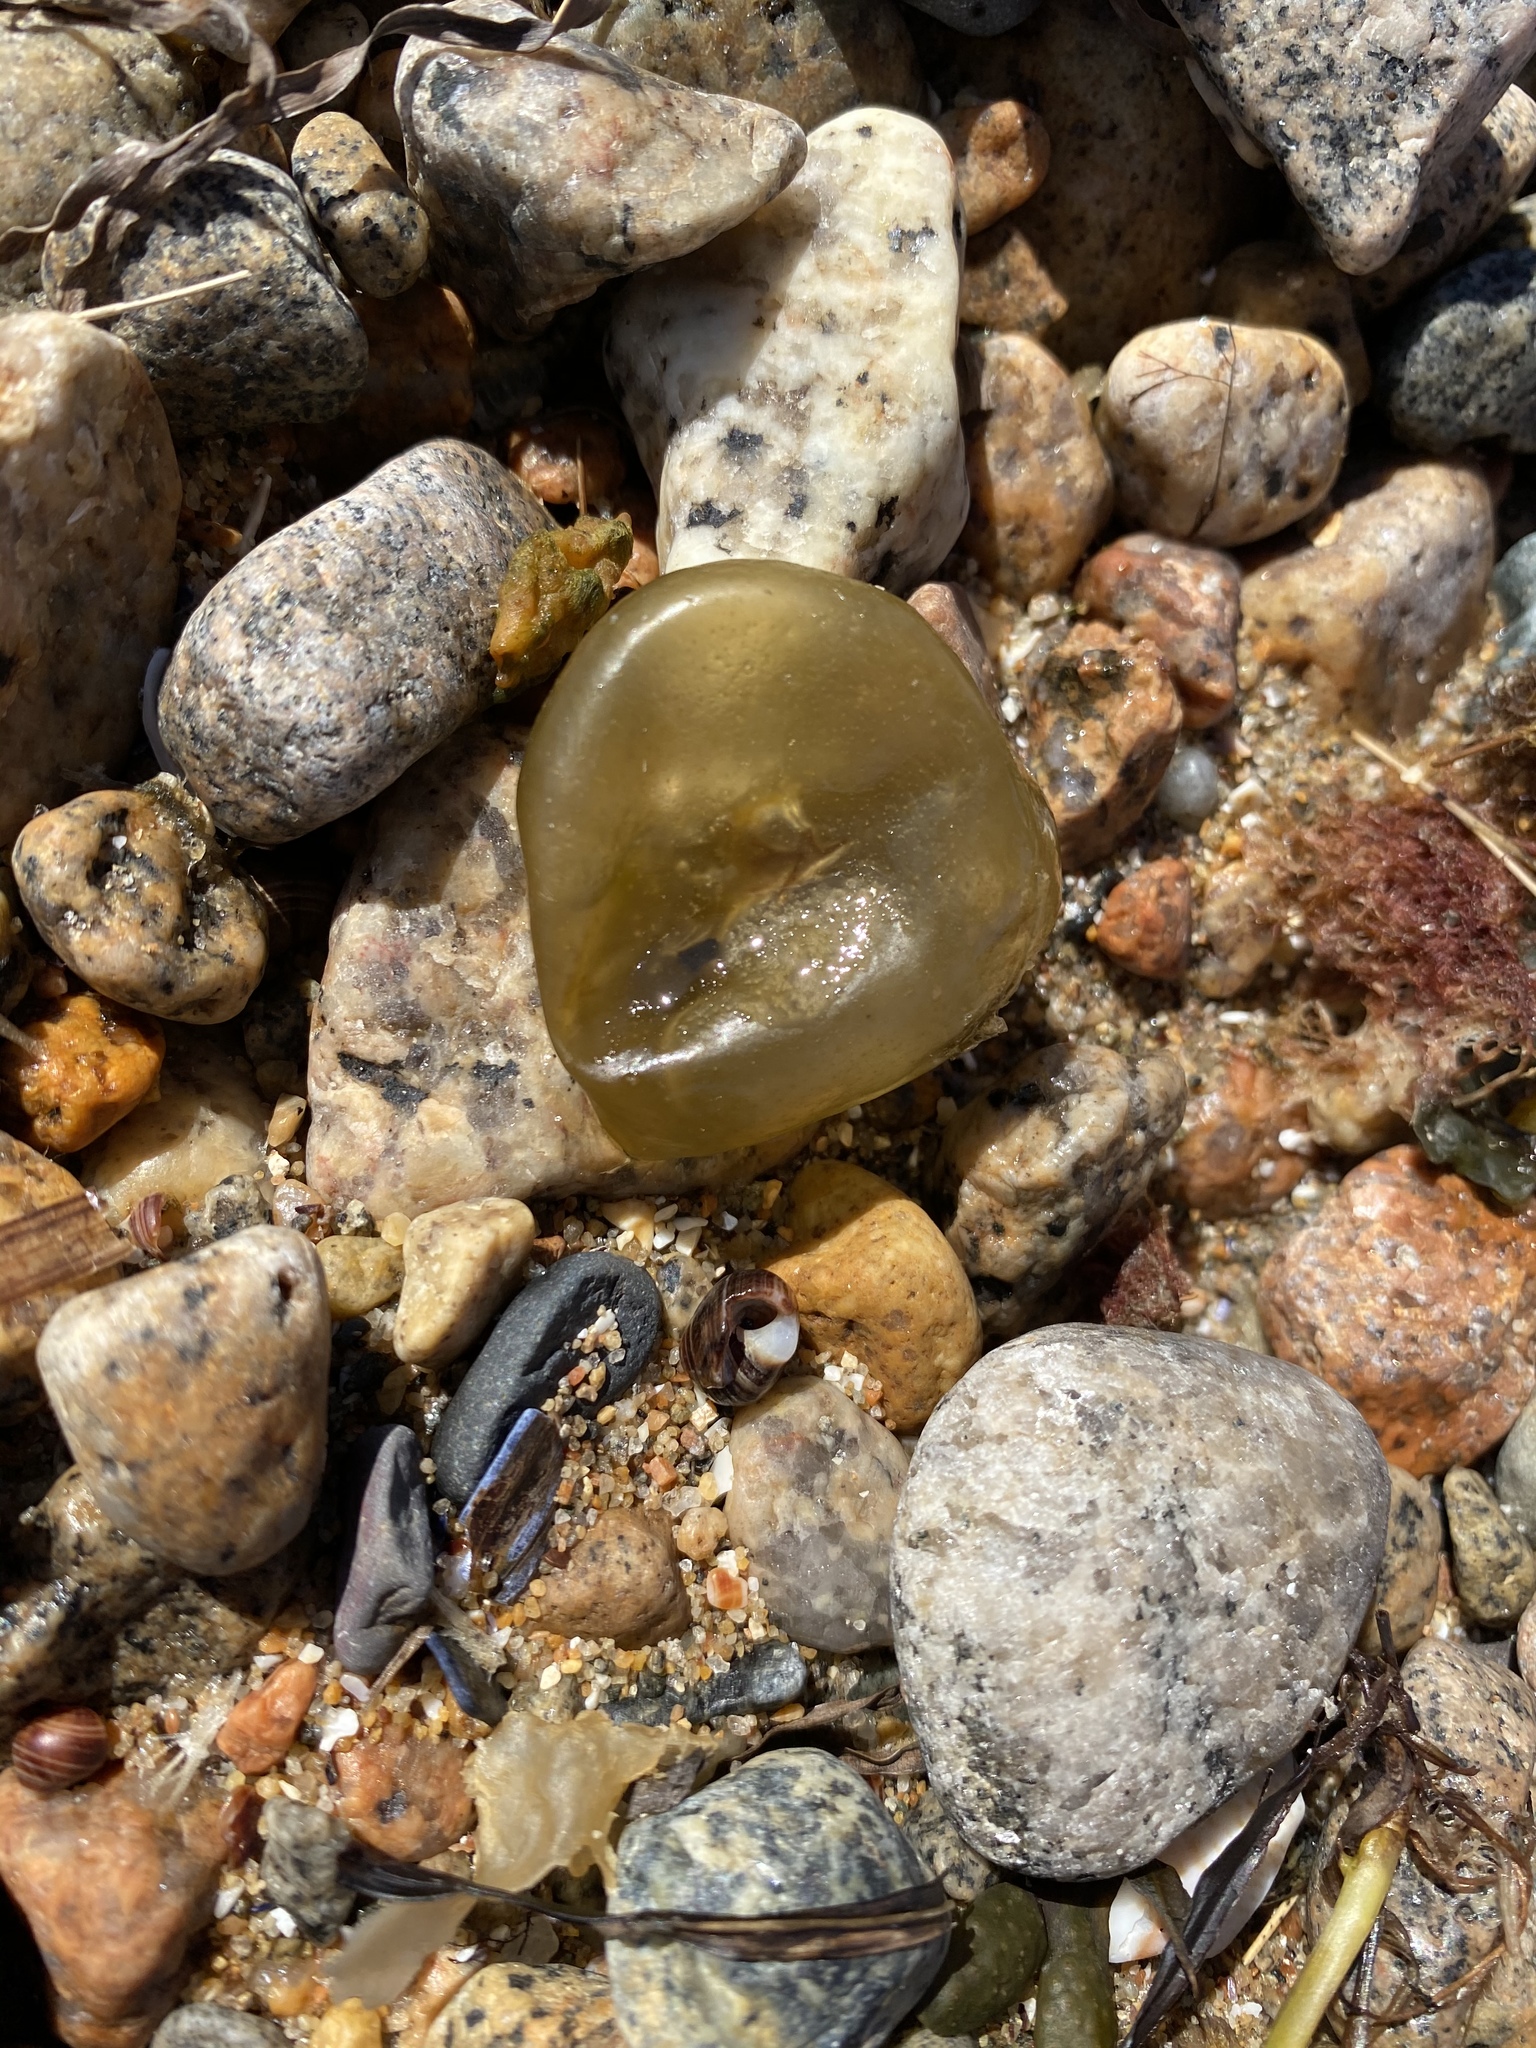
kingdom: Chromista
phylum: Ochrophyta
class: Phaeophyceae
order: Scytosiphonales
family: Scytosiphonaceae
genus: Colpomenia
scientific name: Colpomenia peregrina
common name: Oyster thief
